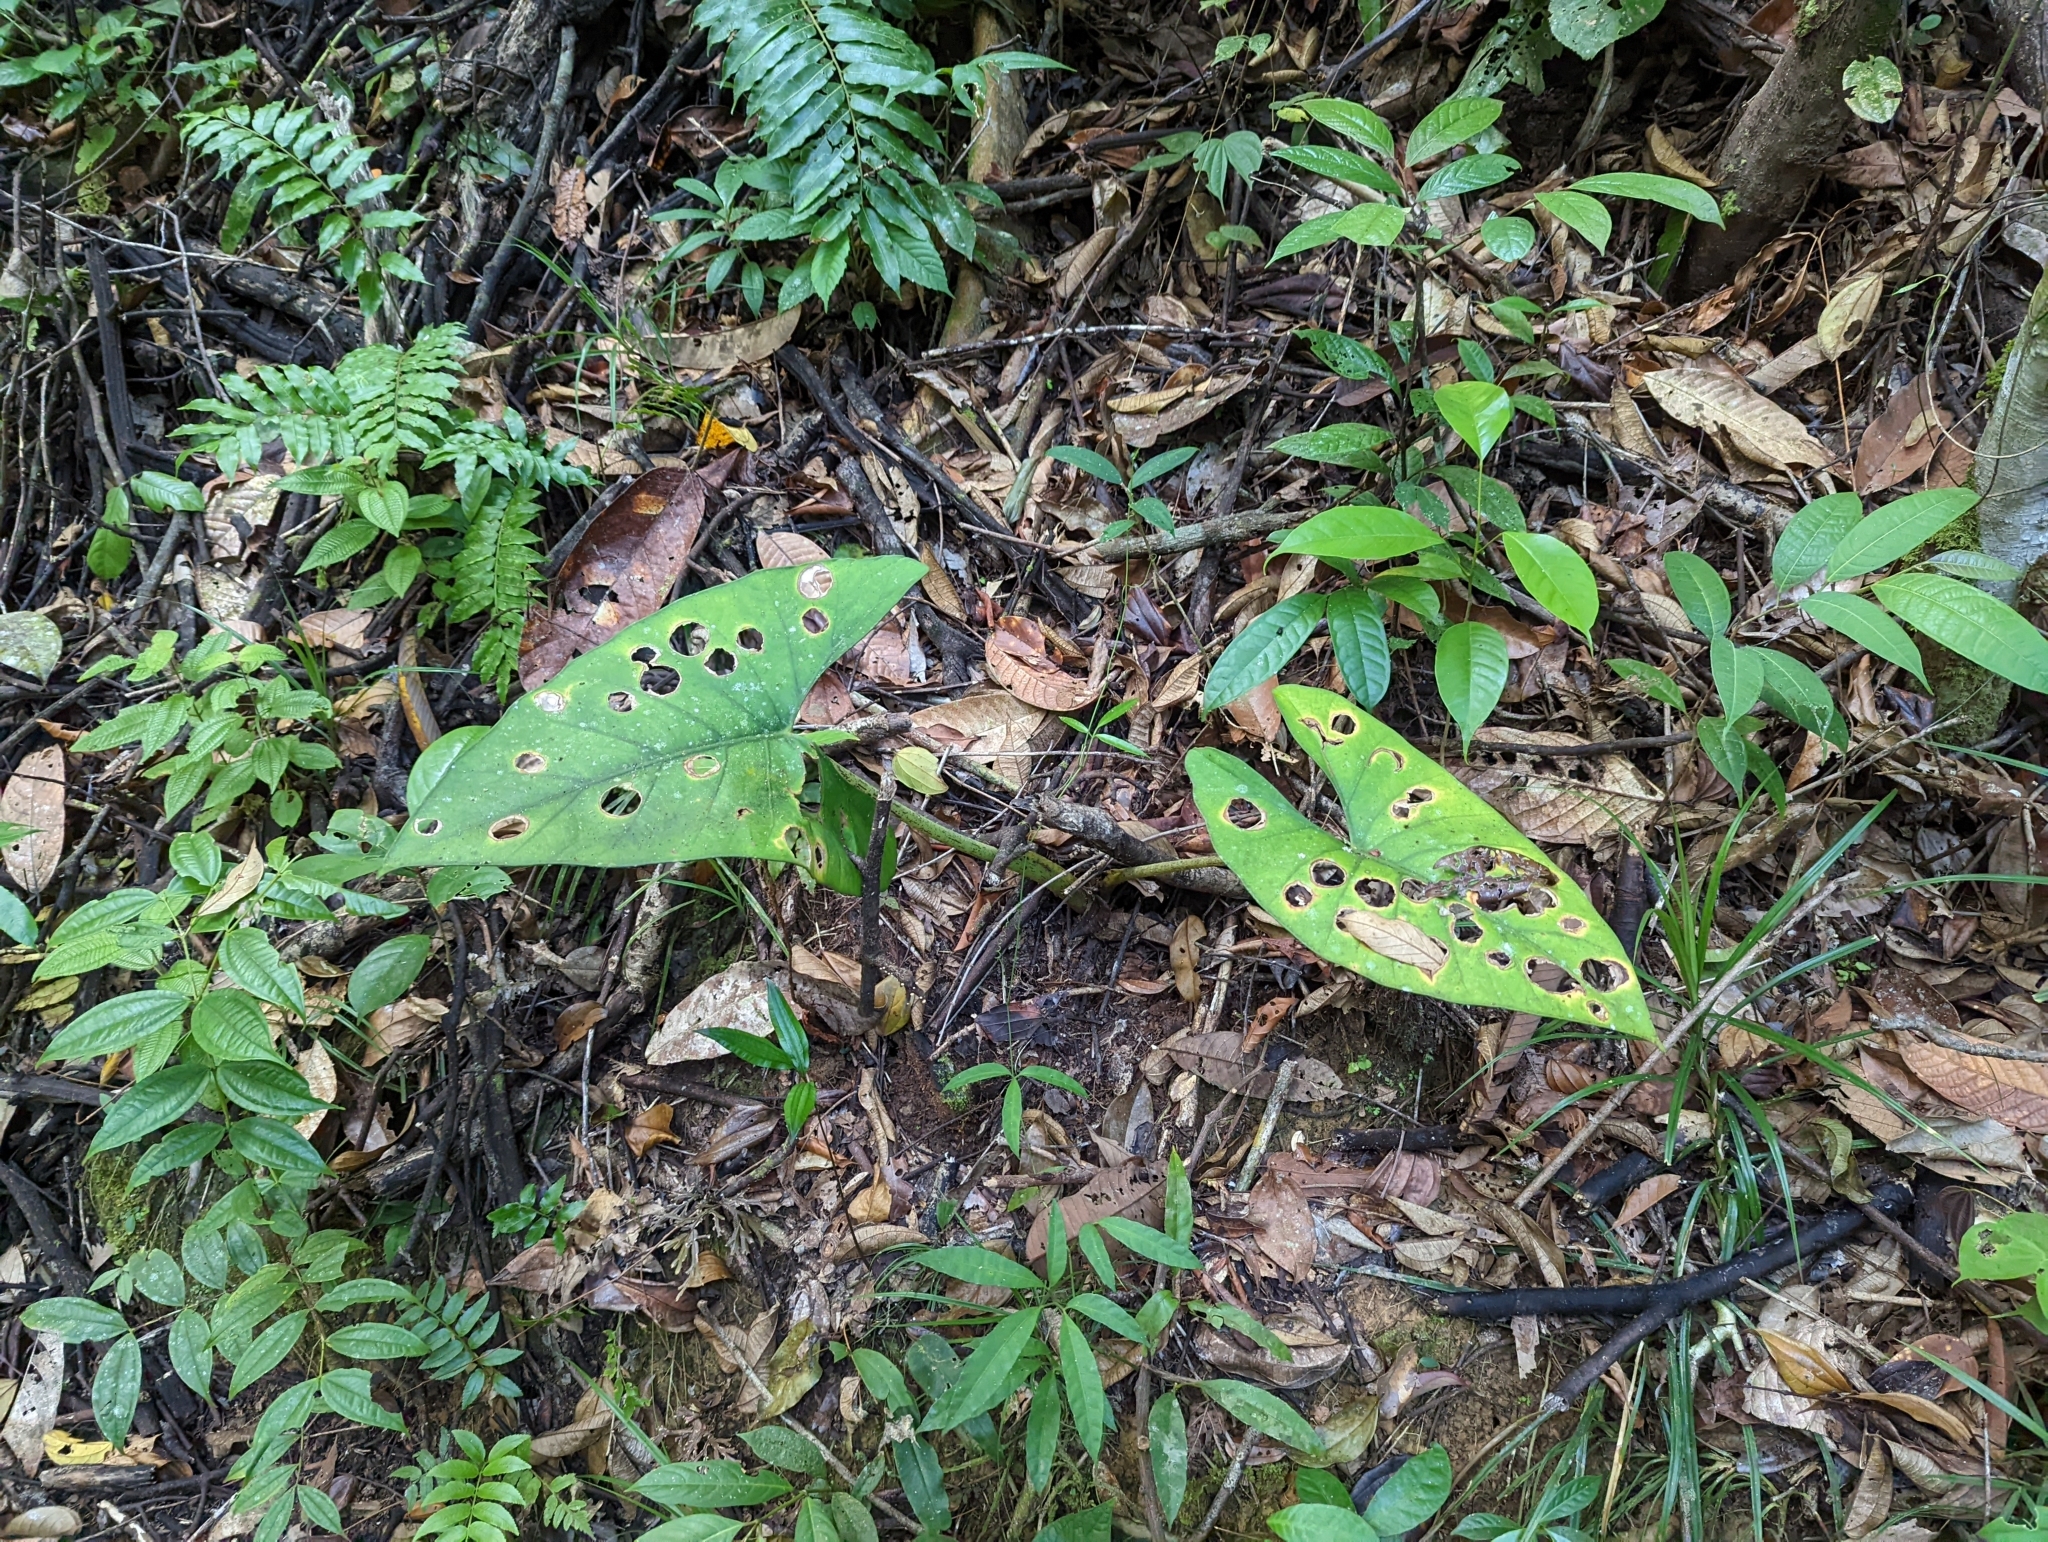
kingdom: Plantae
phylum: Tracheophyta
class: Liliopsida
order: Alismatales
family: Araceae
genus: Alocasia
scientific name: Alocasia scabriuscula
